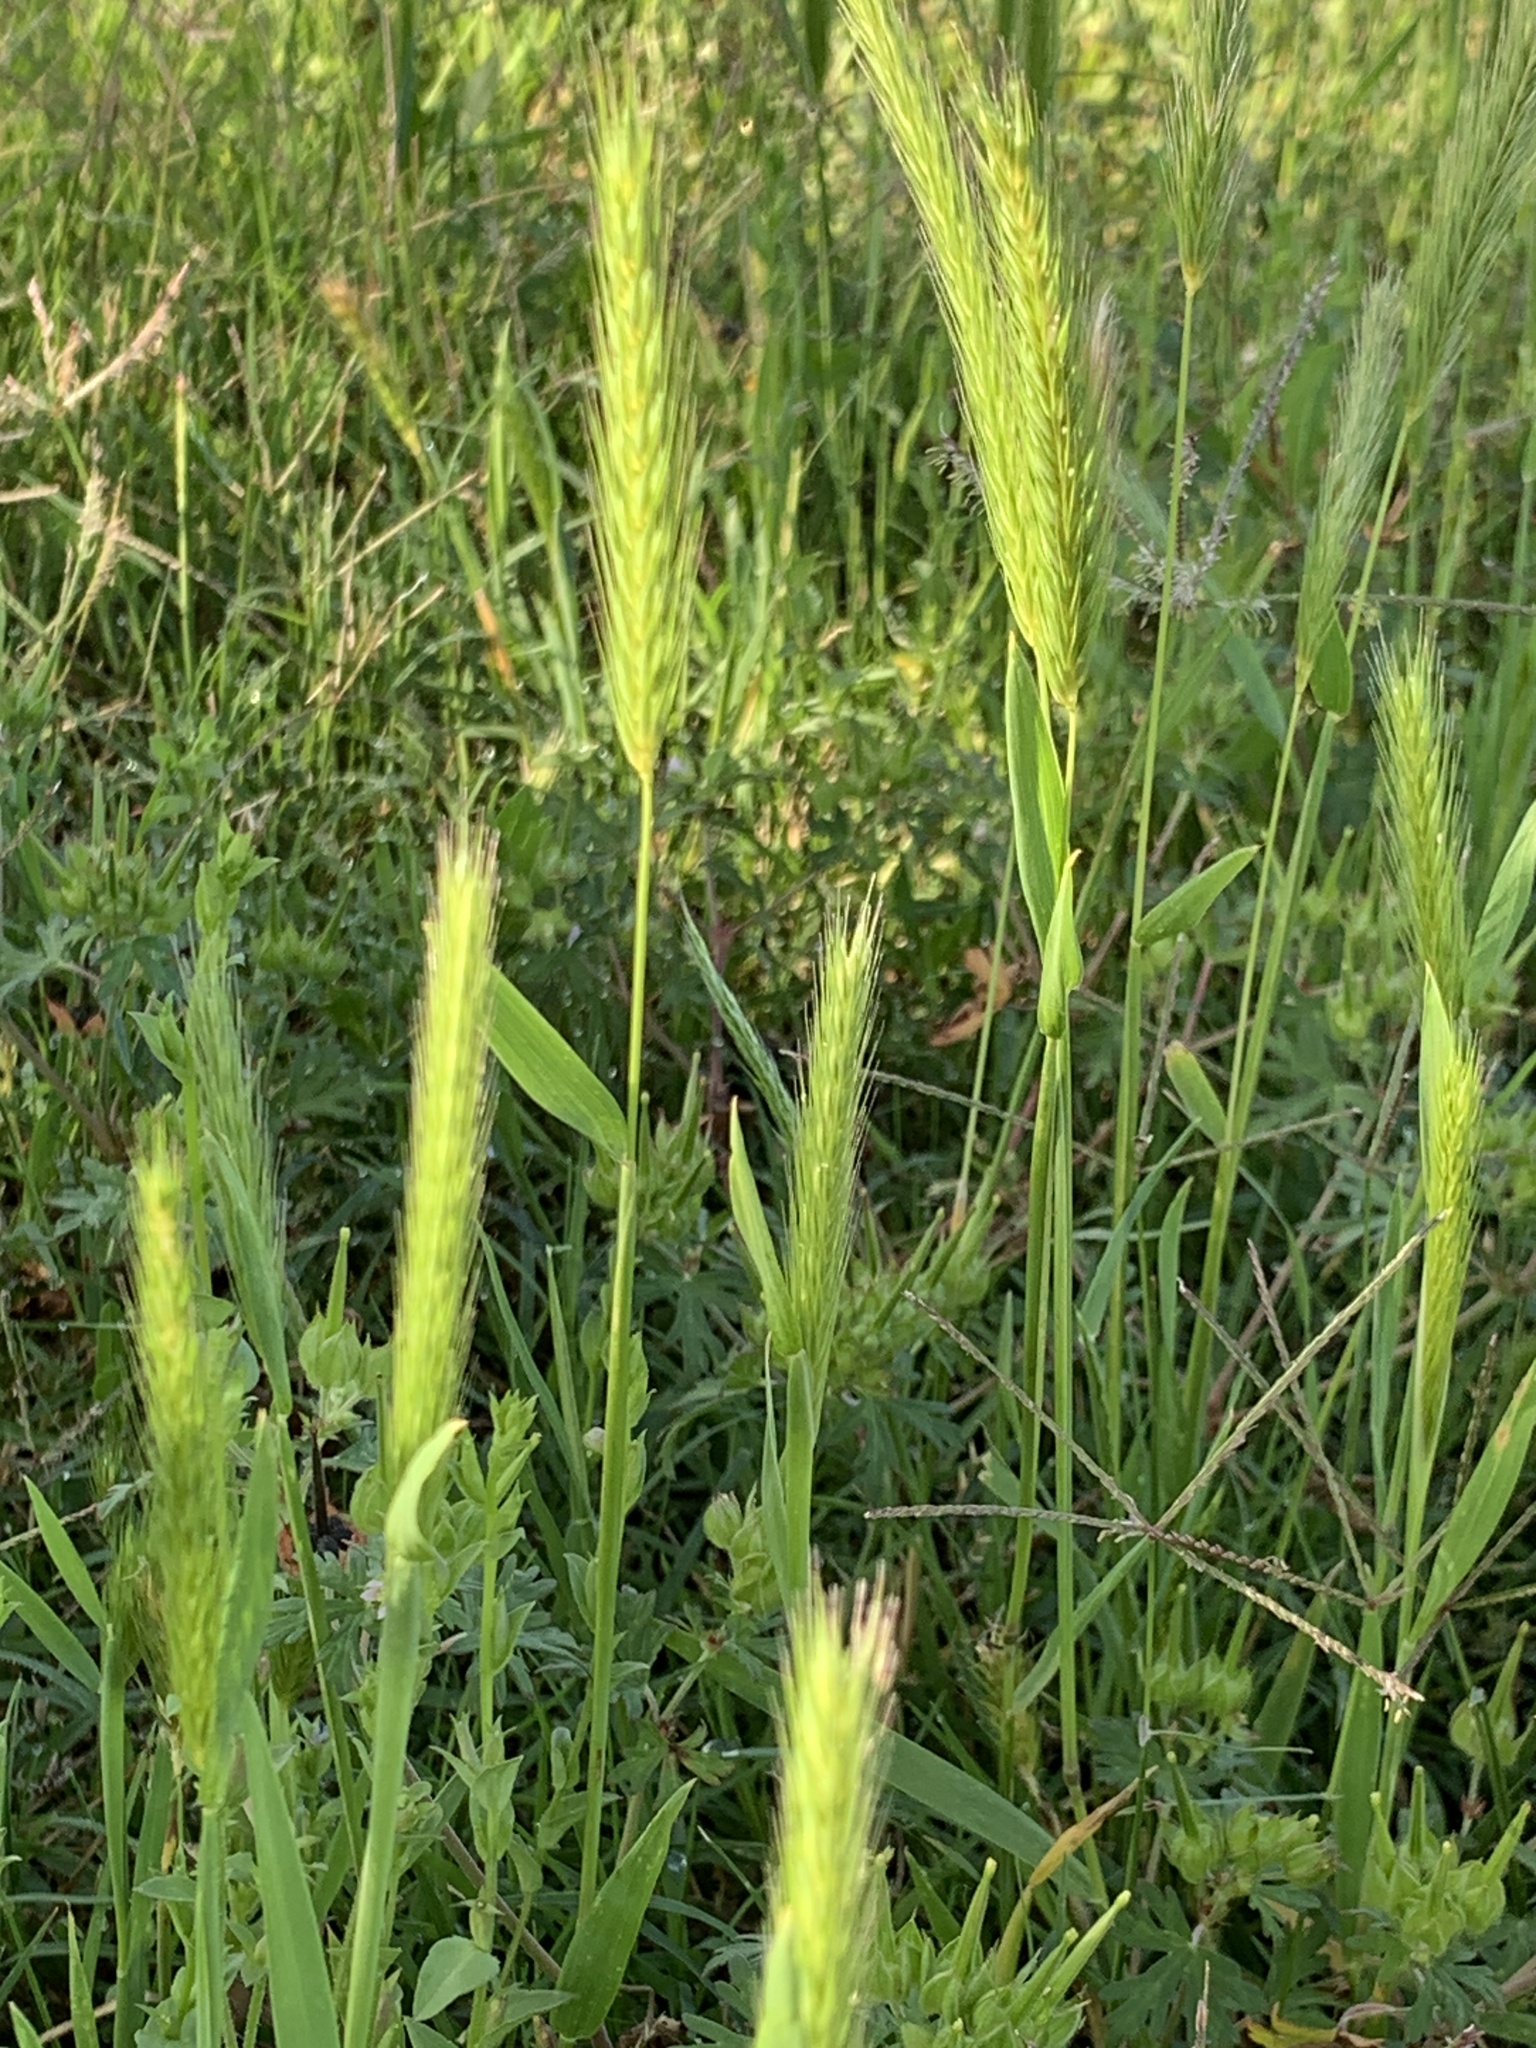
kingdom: Plantae
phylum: Tracheophyta
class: Liliopsida
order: Poales
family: Poaceae
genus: Hordeum
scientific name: Hordeum pusillum
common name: Little barley
